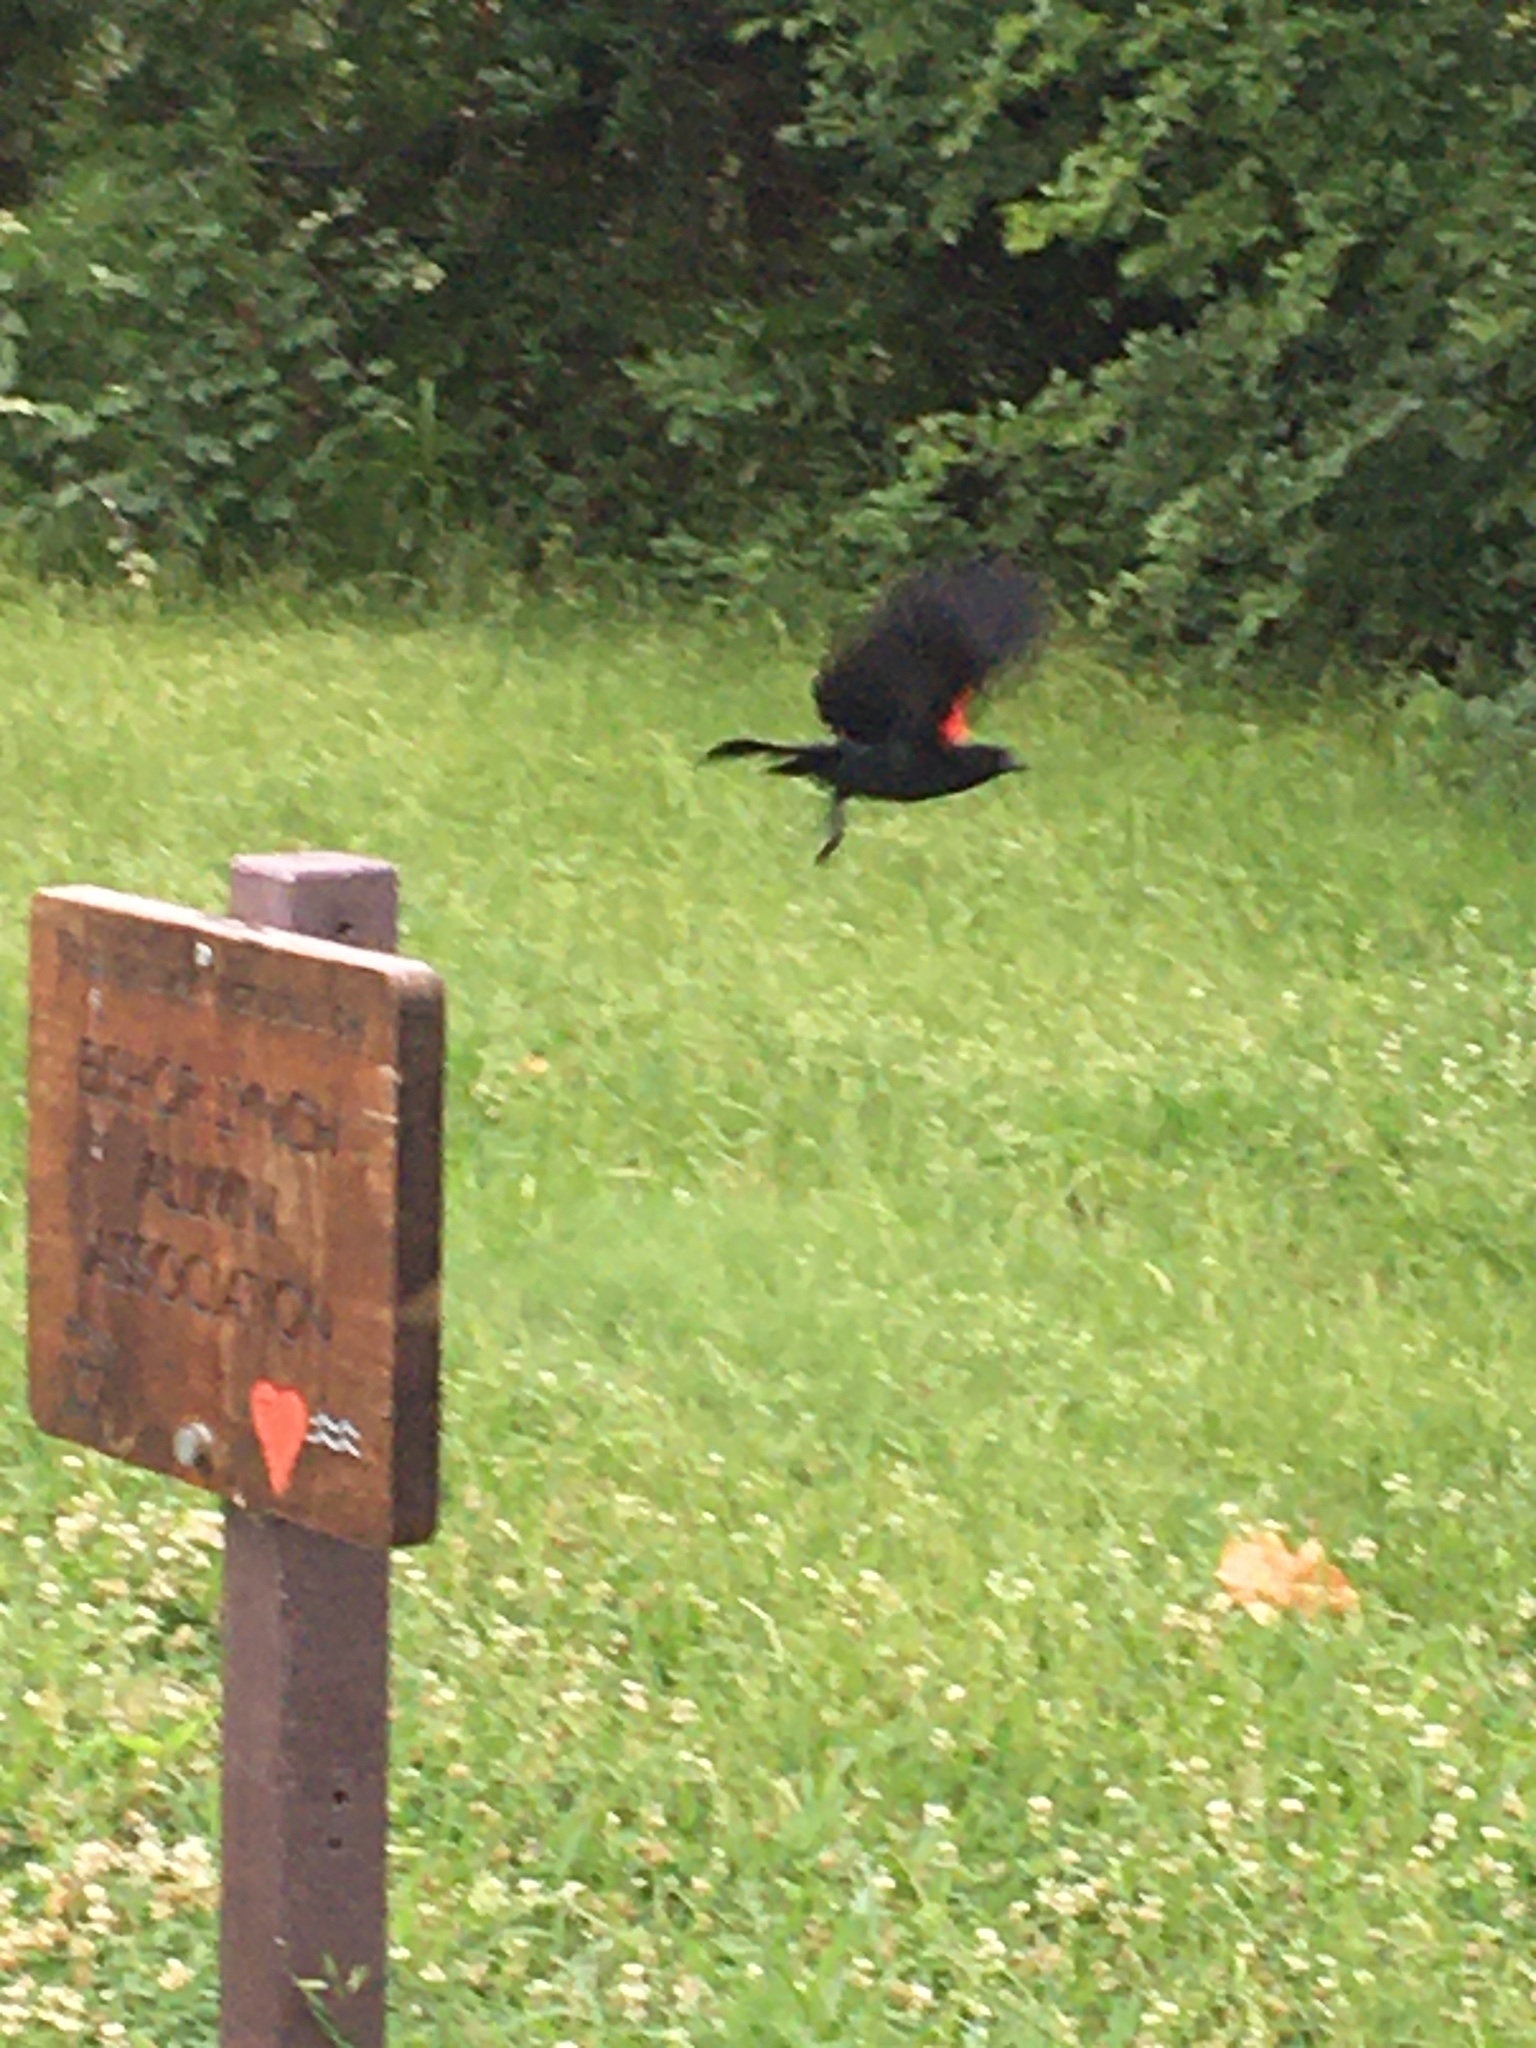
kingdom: Animalia
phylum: Chordata
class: Aves
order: Passeriformes
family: Icteridae
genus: Agelaius
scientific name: Agelaius phoeniceus
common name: Red-winged blackbird
